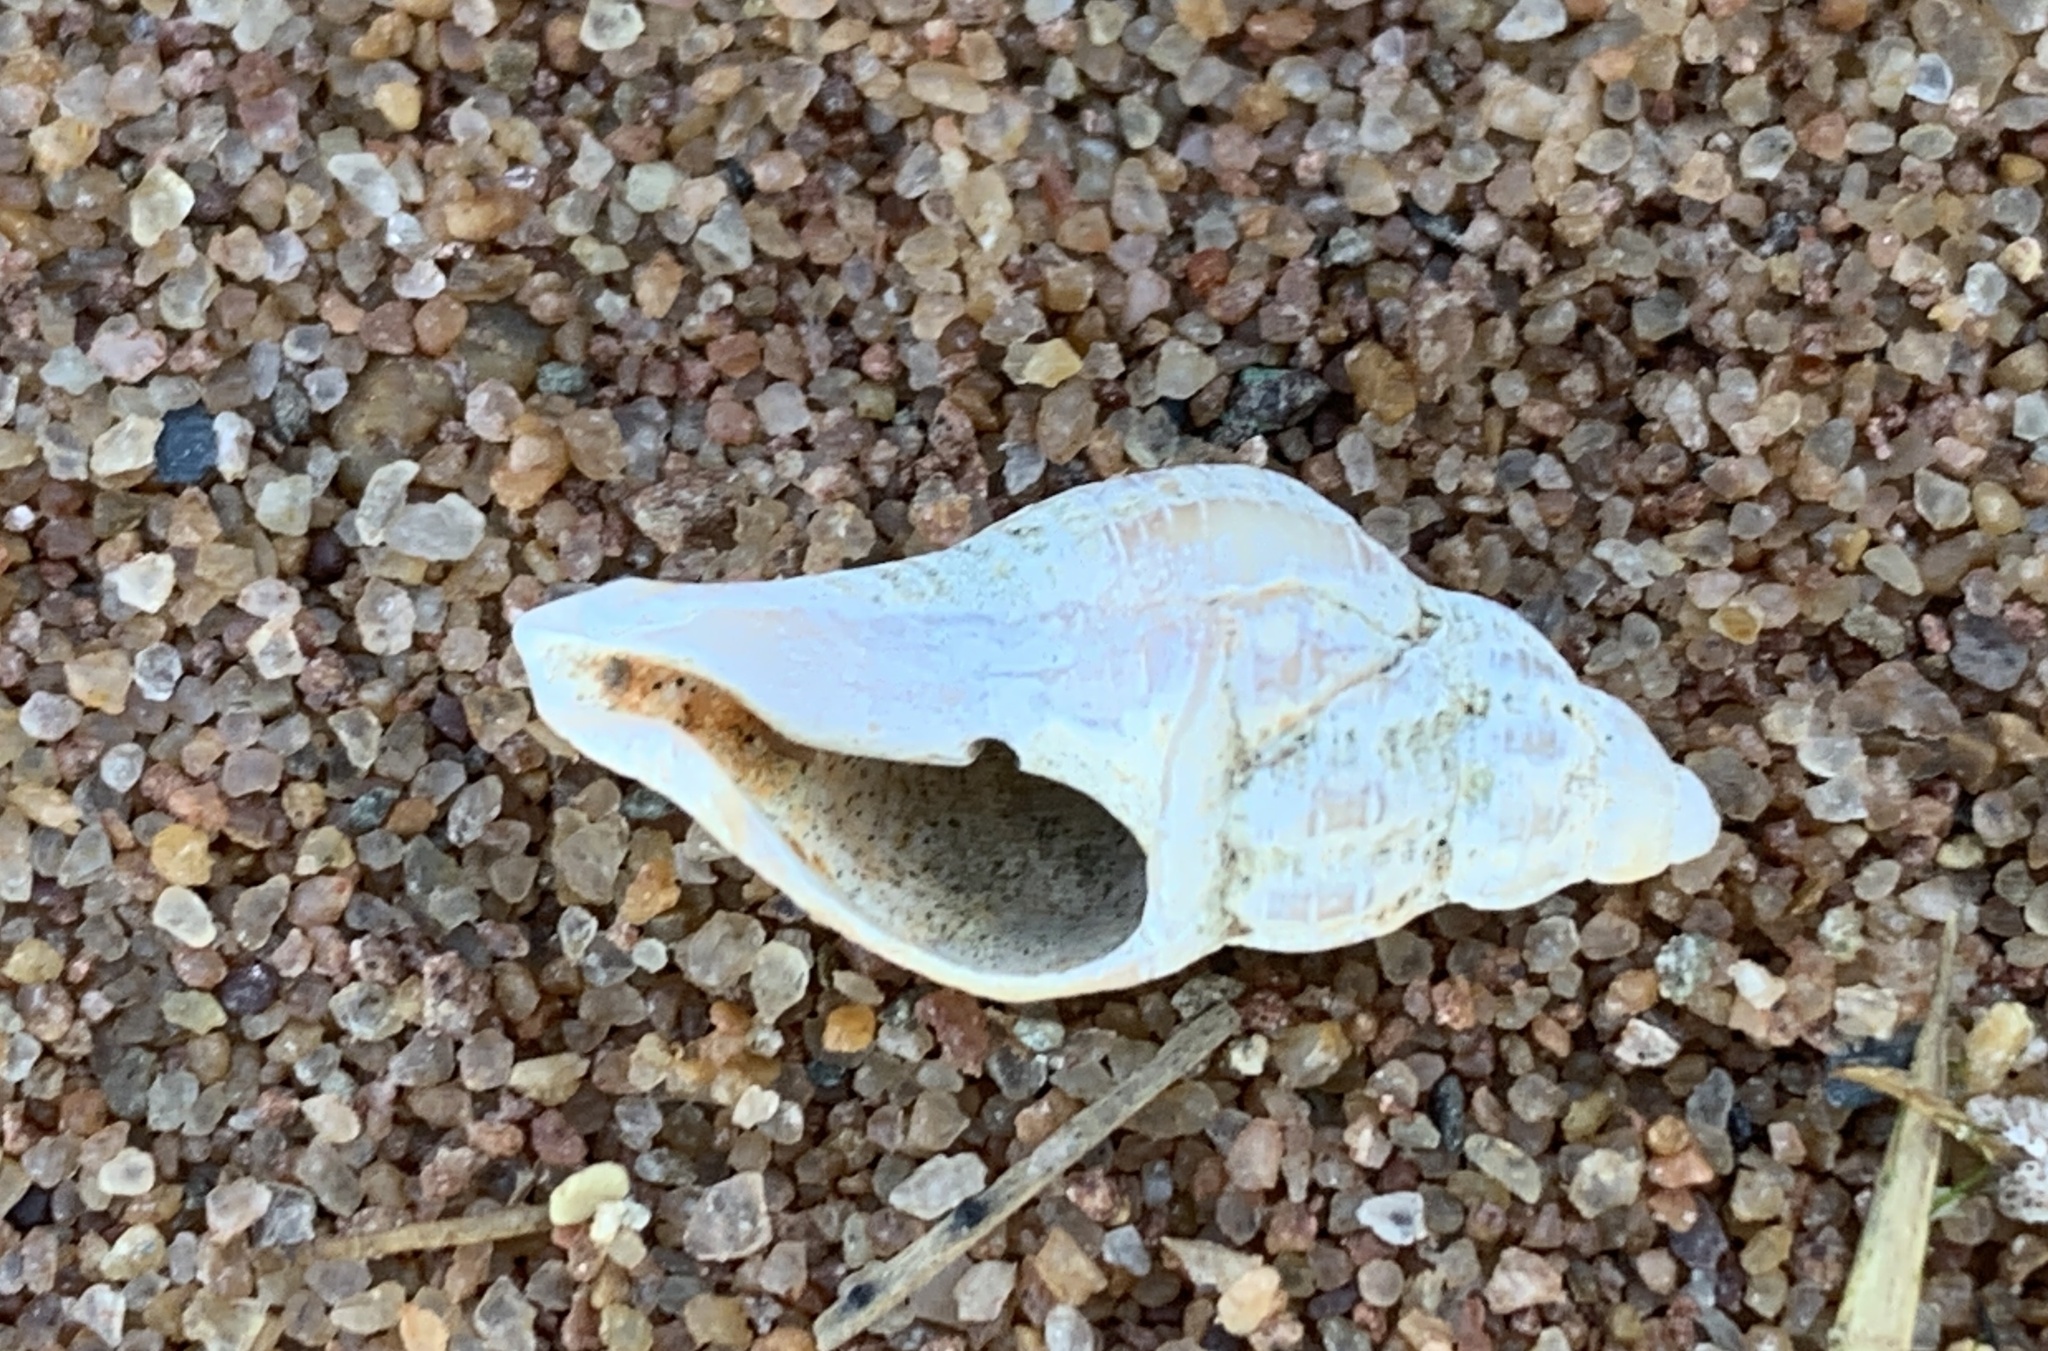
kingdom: Animalia
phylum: Mollusca
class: Gastropoda
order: Neogastropoda
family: Muricidae
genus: Urosalpinx
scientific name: Urosalpinx cinerea
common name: American sting winkle
